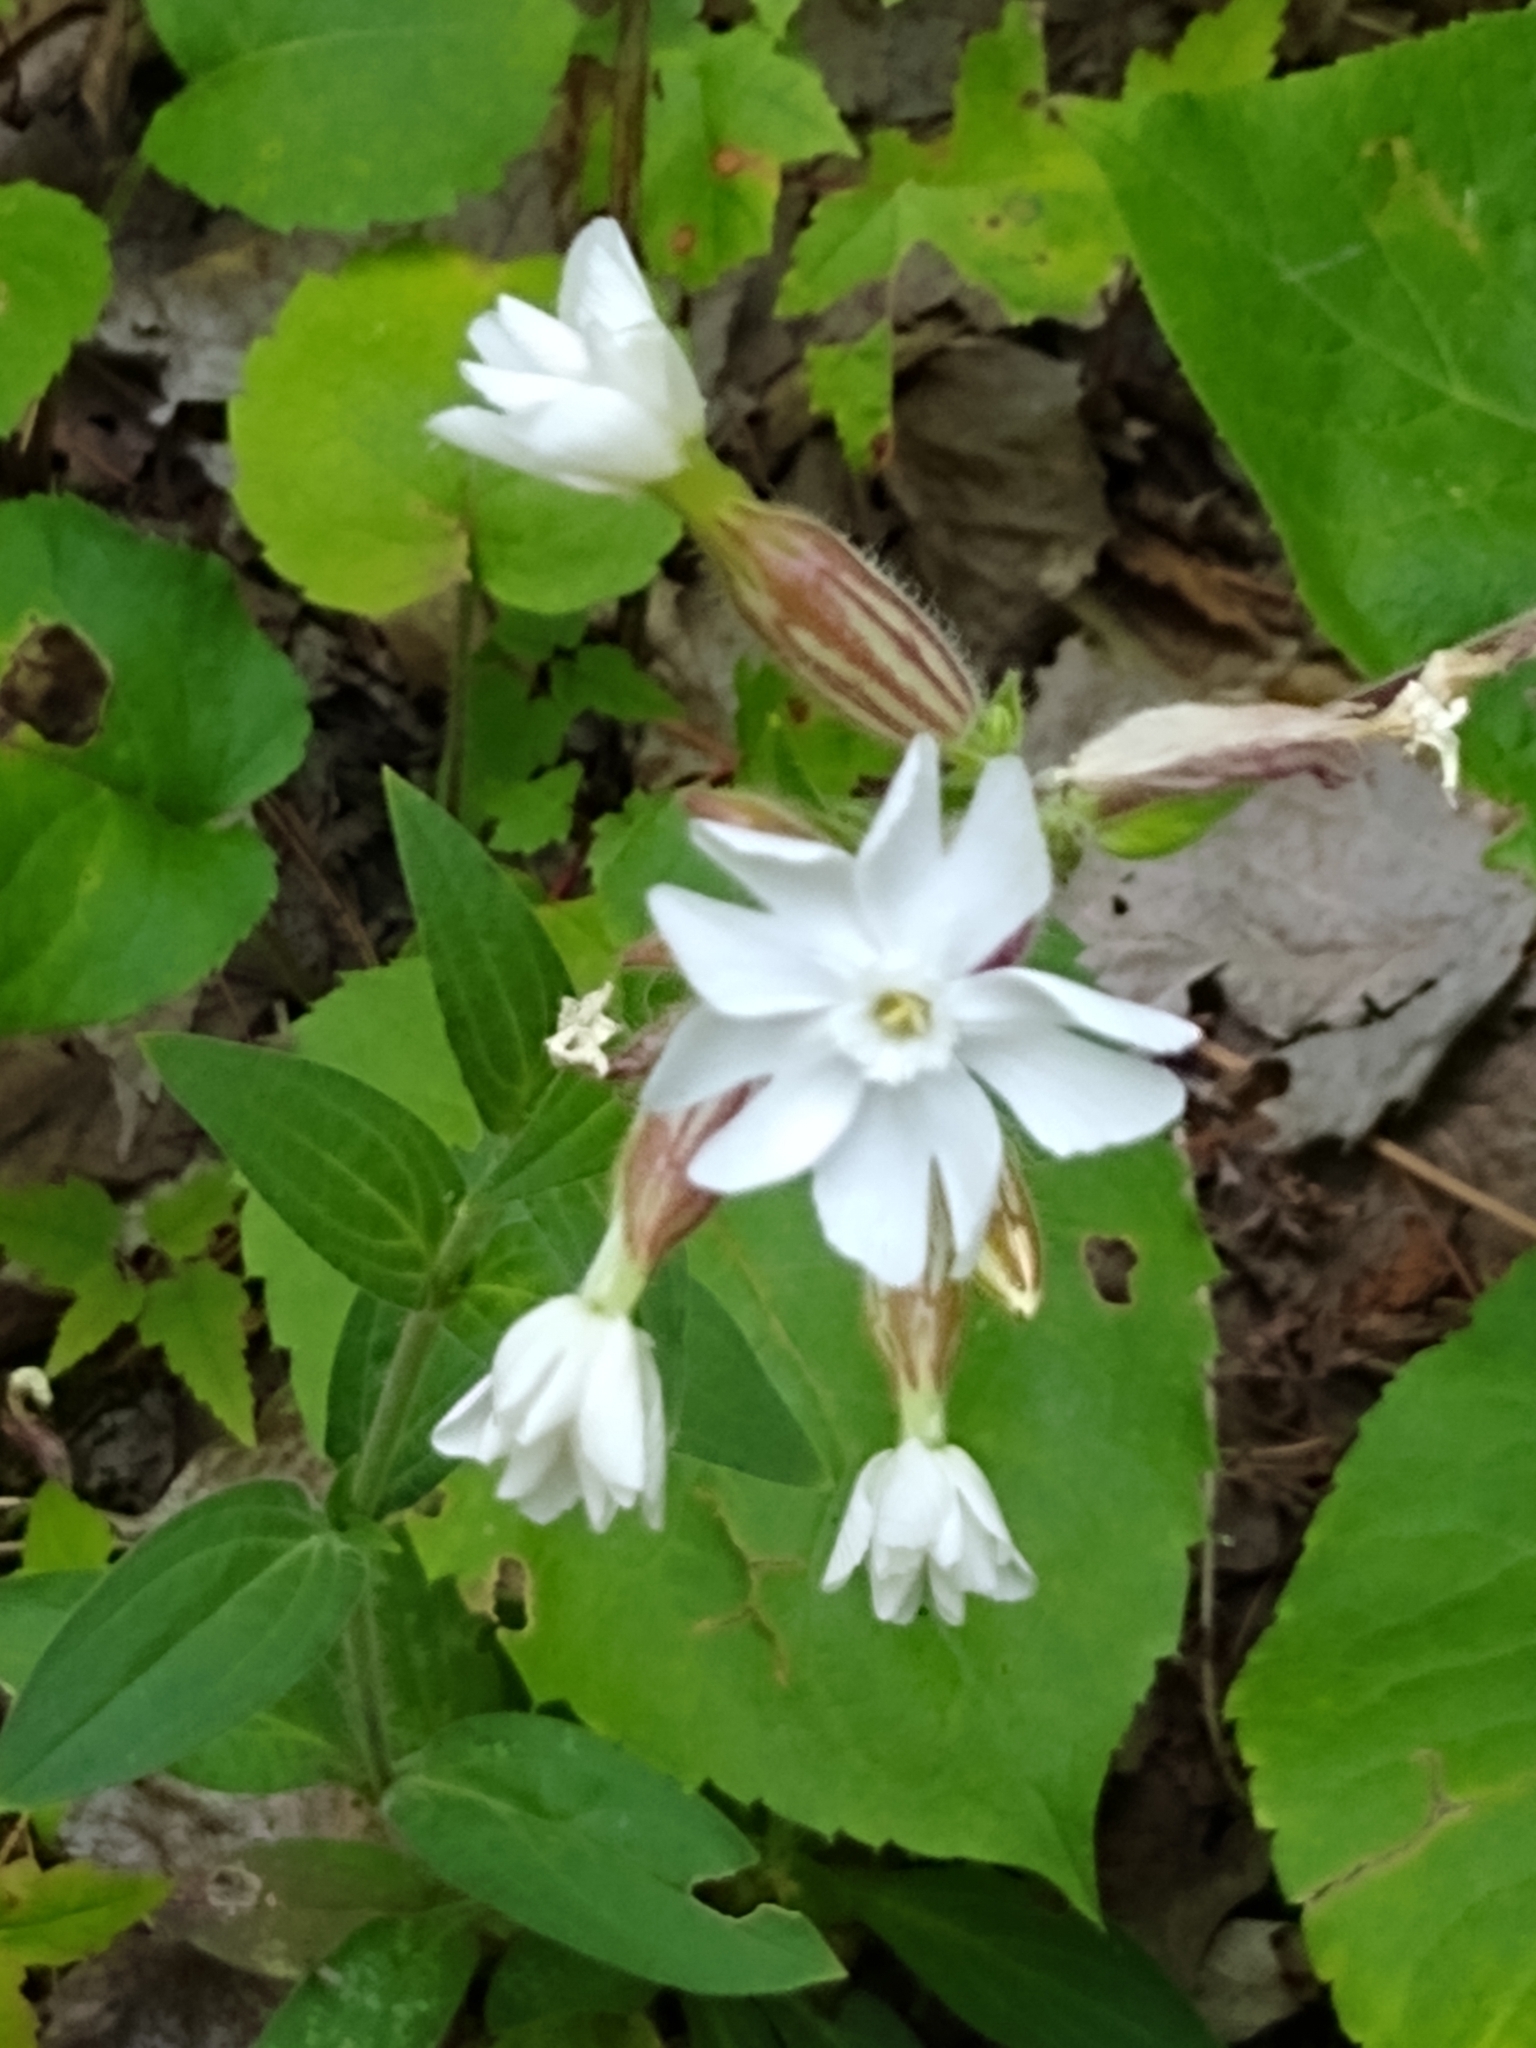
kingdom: Plantae
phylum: Tracheophyta
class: Magnoliopsida
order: Caryophyllales
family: Caryophyllaceae
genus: Silene
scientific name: Silene latifolia
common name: White campion
